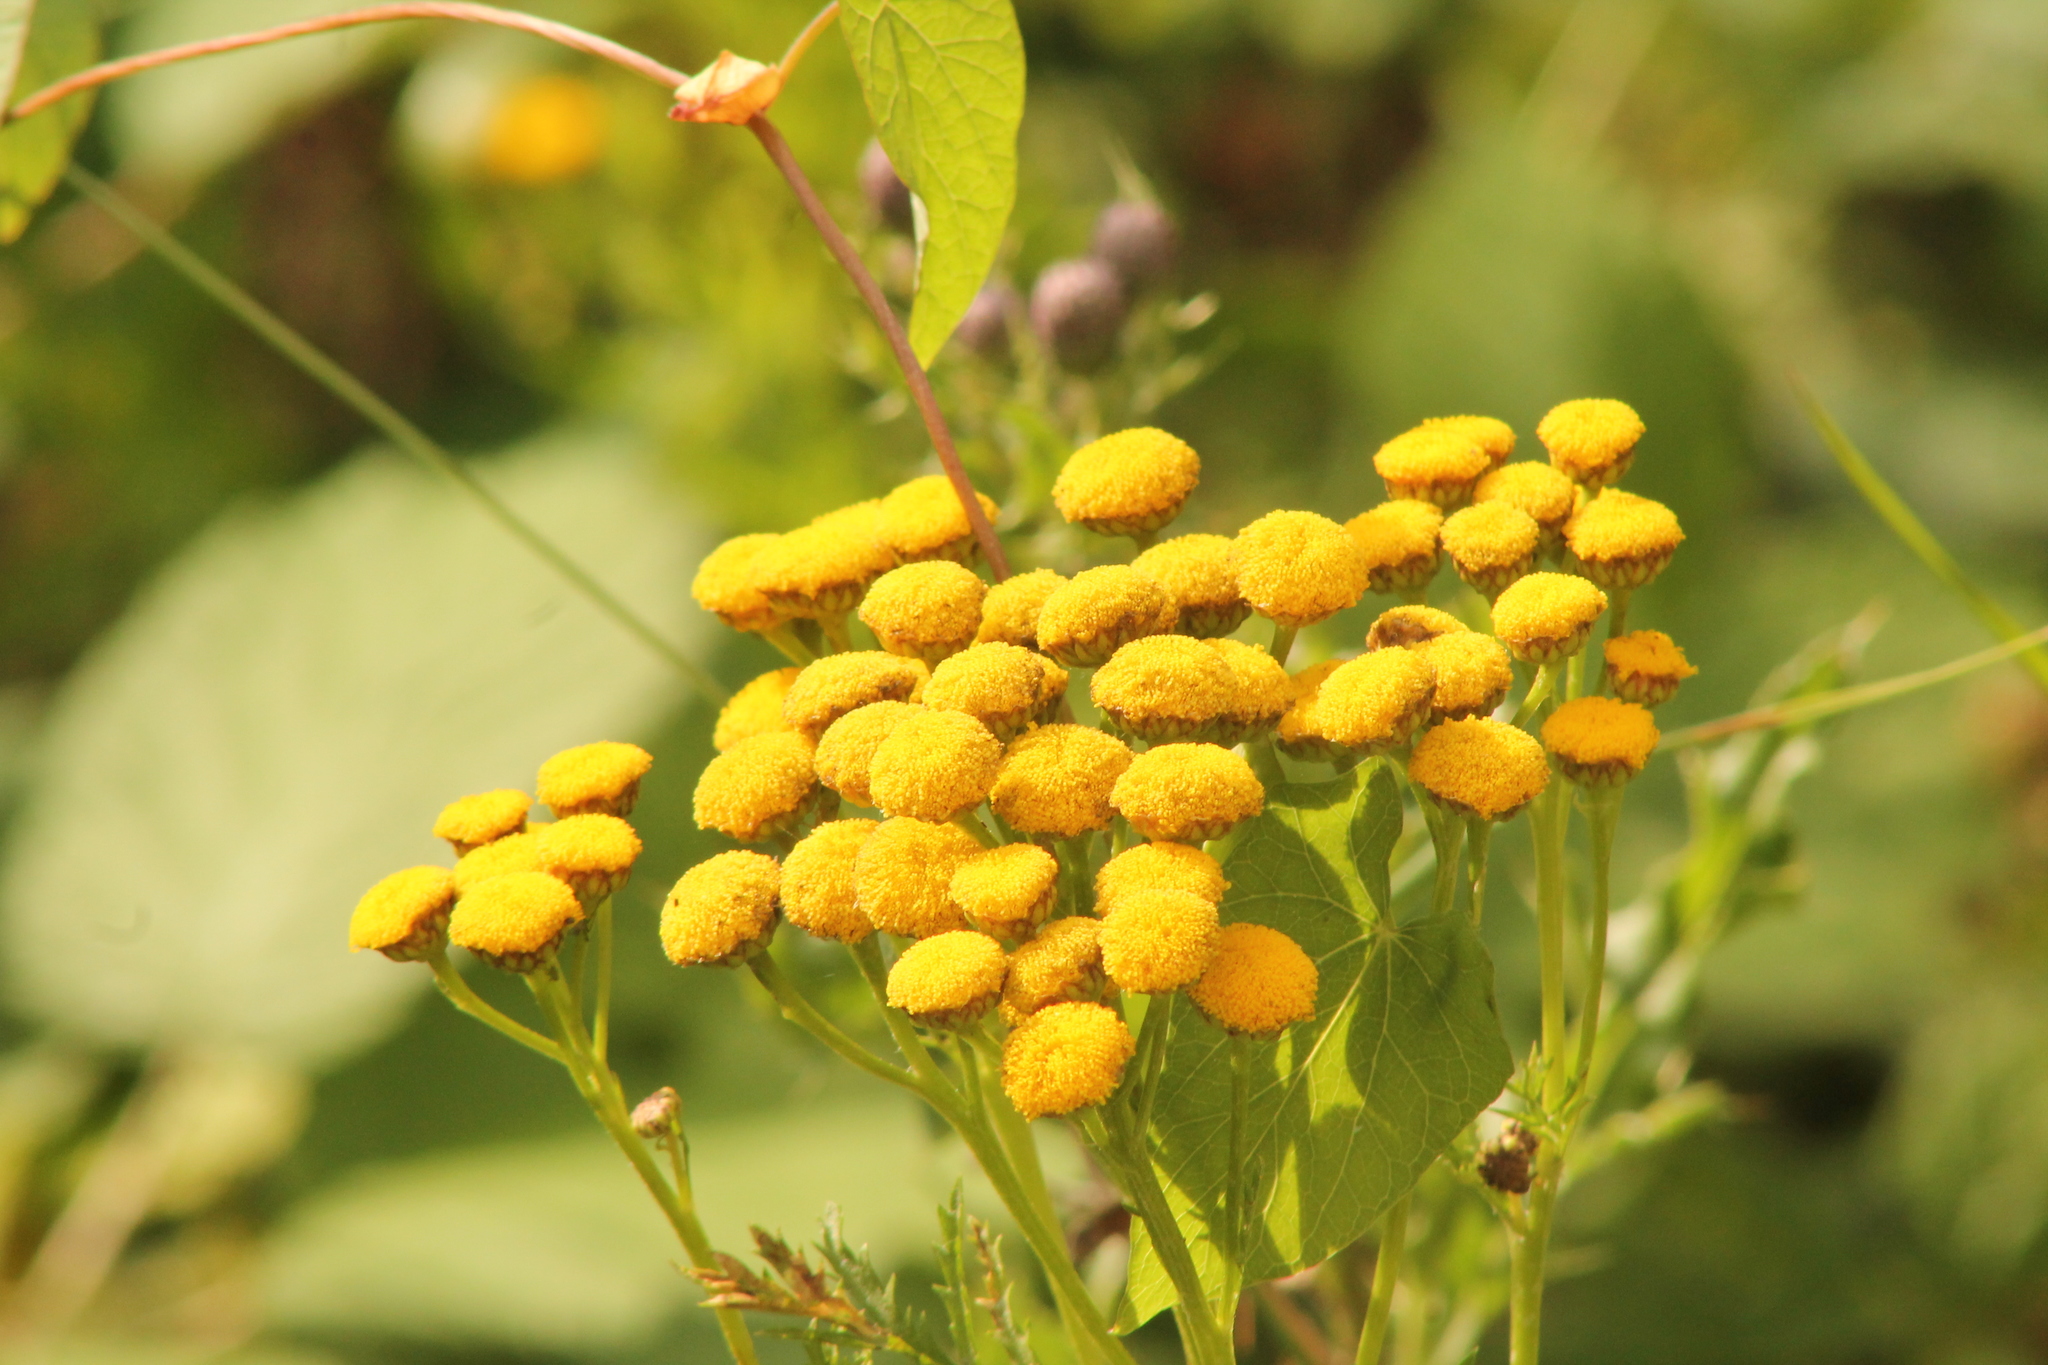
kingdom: Plantae
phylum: Tracheophyta
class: Magnoliopsida
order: Asterales
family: Asteraceae
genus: Tanacetum
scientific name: Tanacetum vulgare
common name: Common tansy
